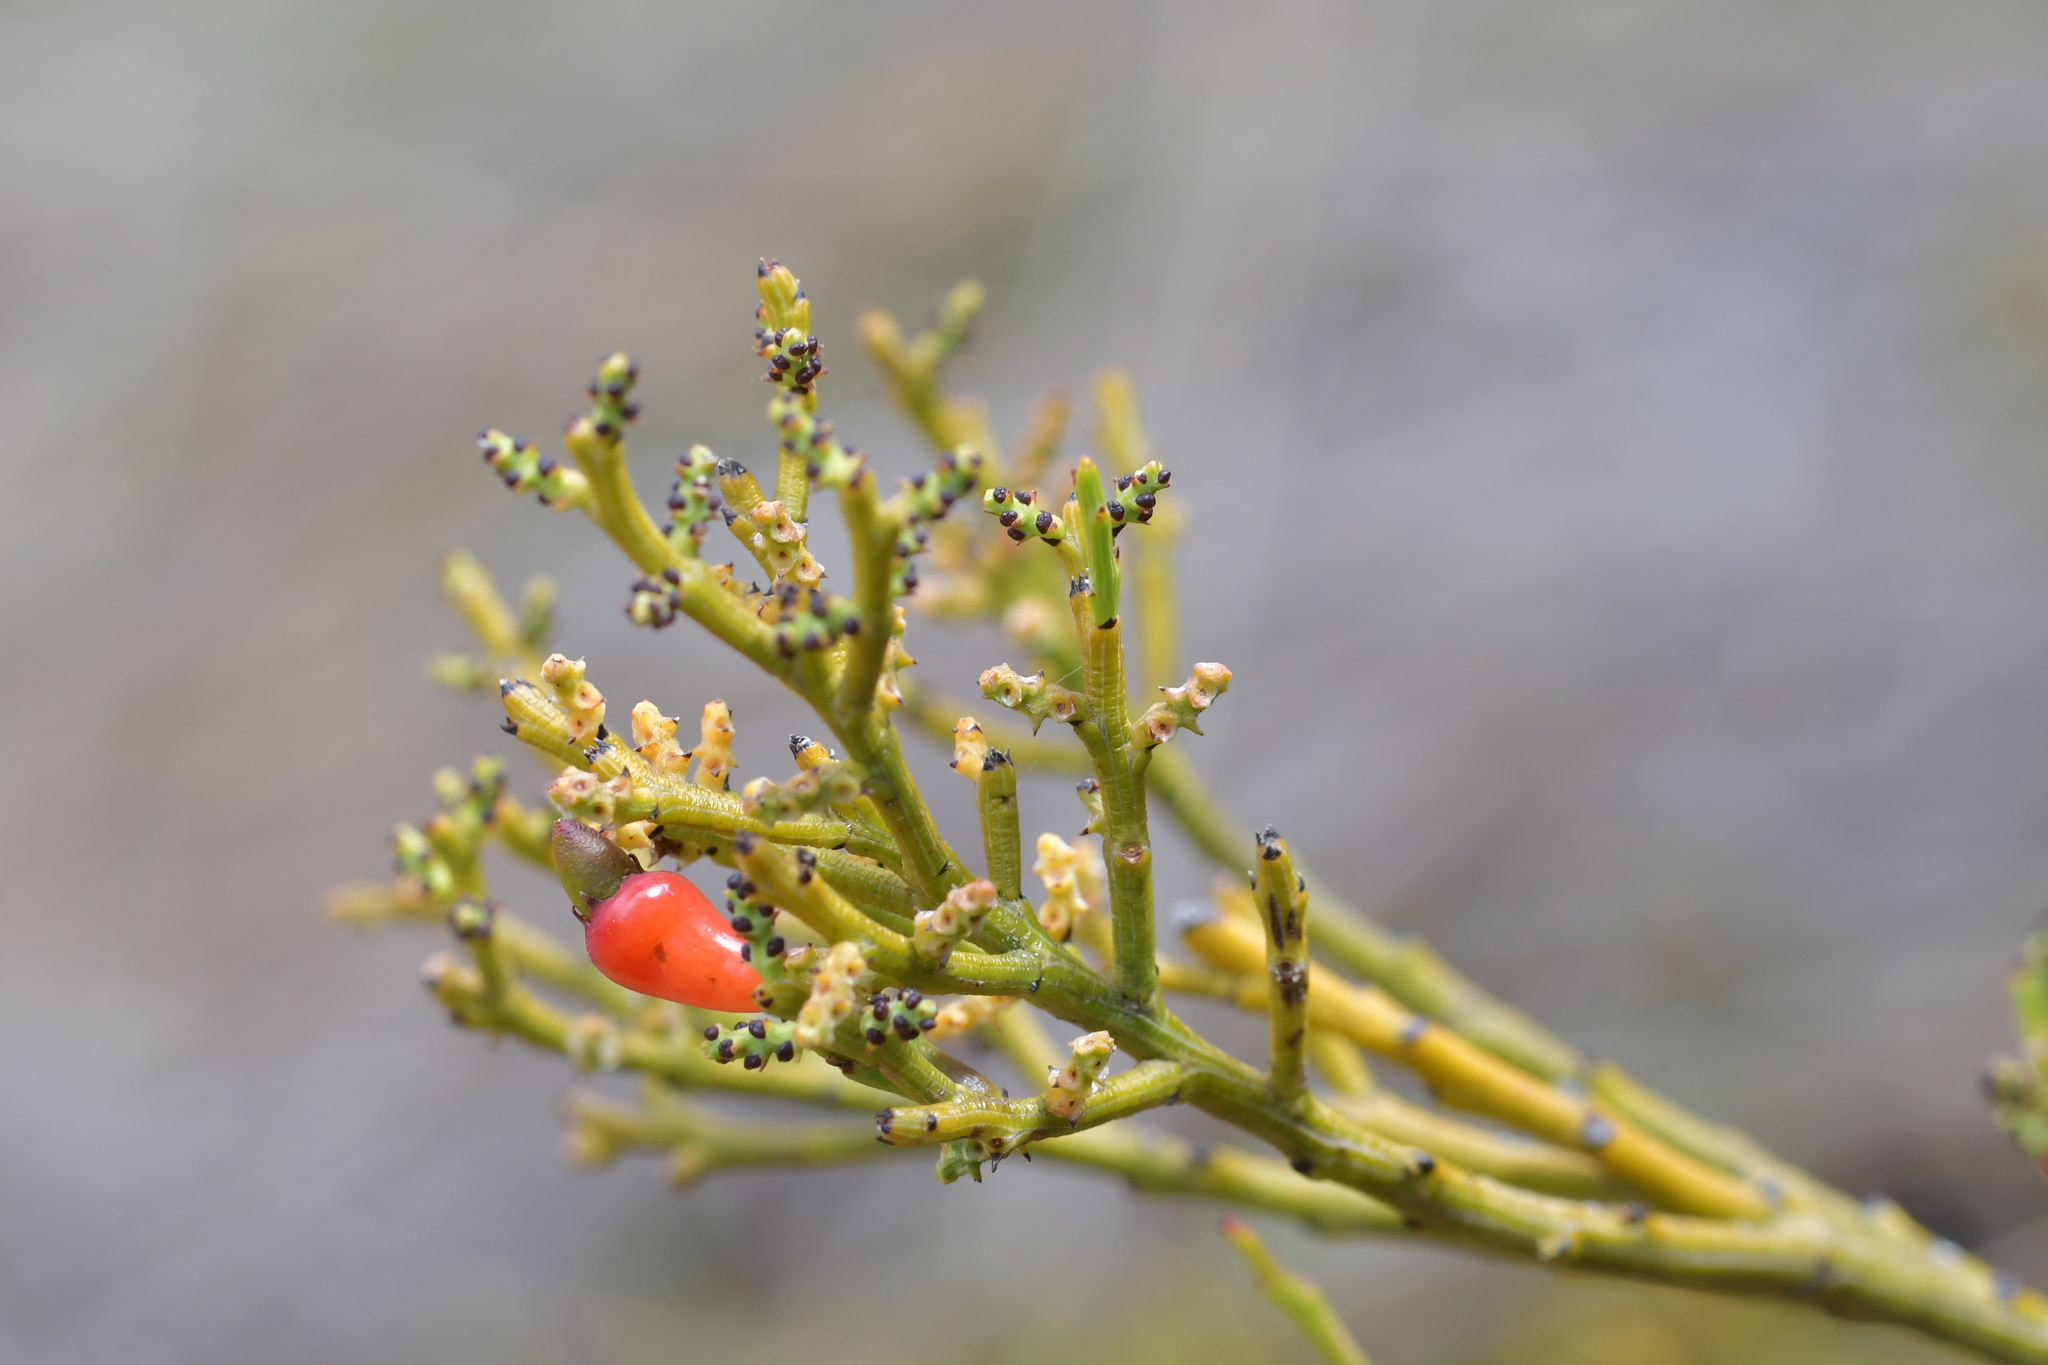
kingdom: Plantae
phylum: Tracheophyta
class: Magnoliopsida
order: Santalales
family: Santalaceae
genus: Exocarpos
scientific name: Exocarpos bidwillii
